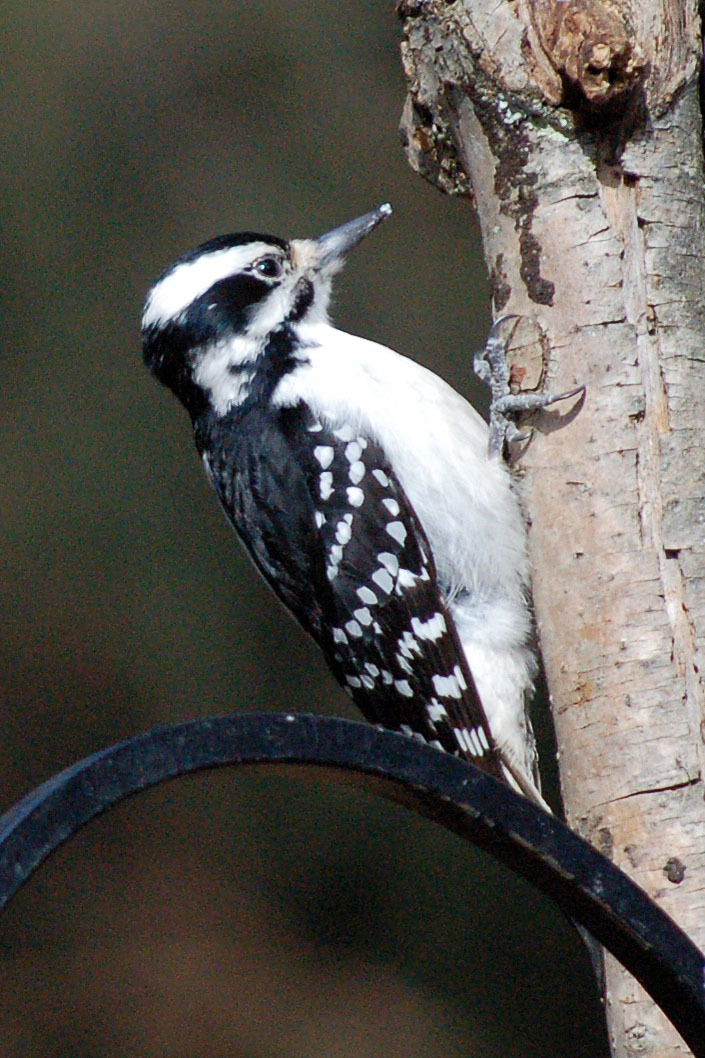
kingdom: Animalia
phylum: Chordata
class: Aves
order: Piciformes
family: Picidae
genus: Leuconotopicus
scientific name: Leuconotopicus villosus
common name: Hairy woodpecker
